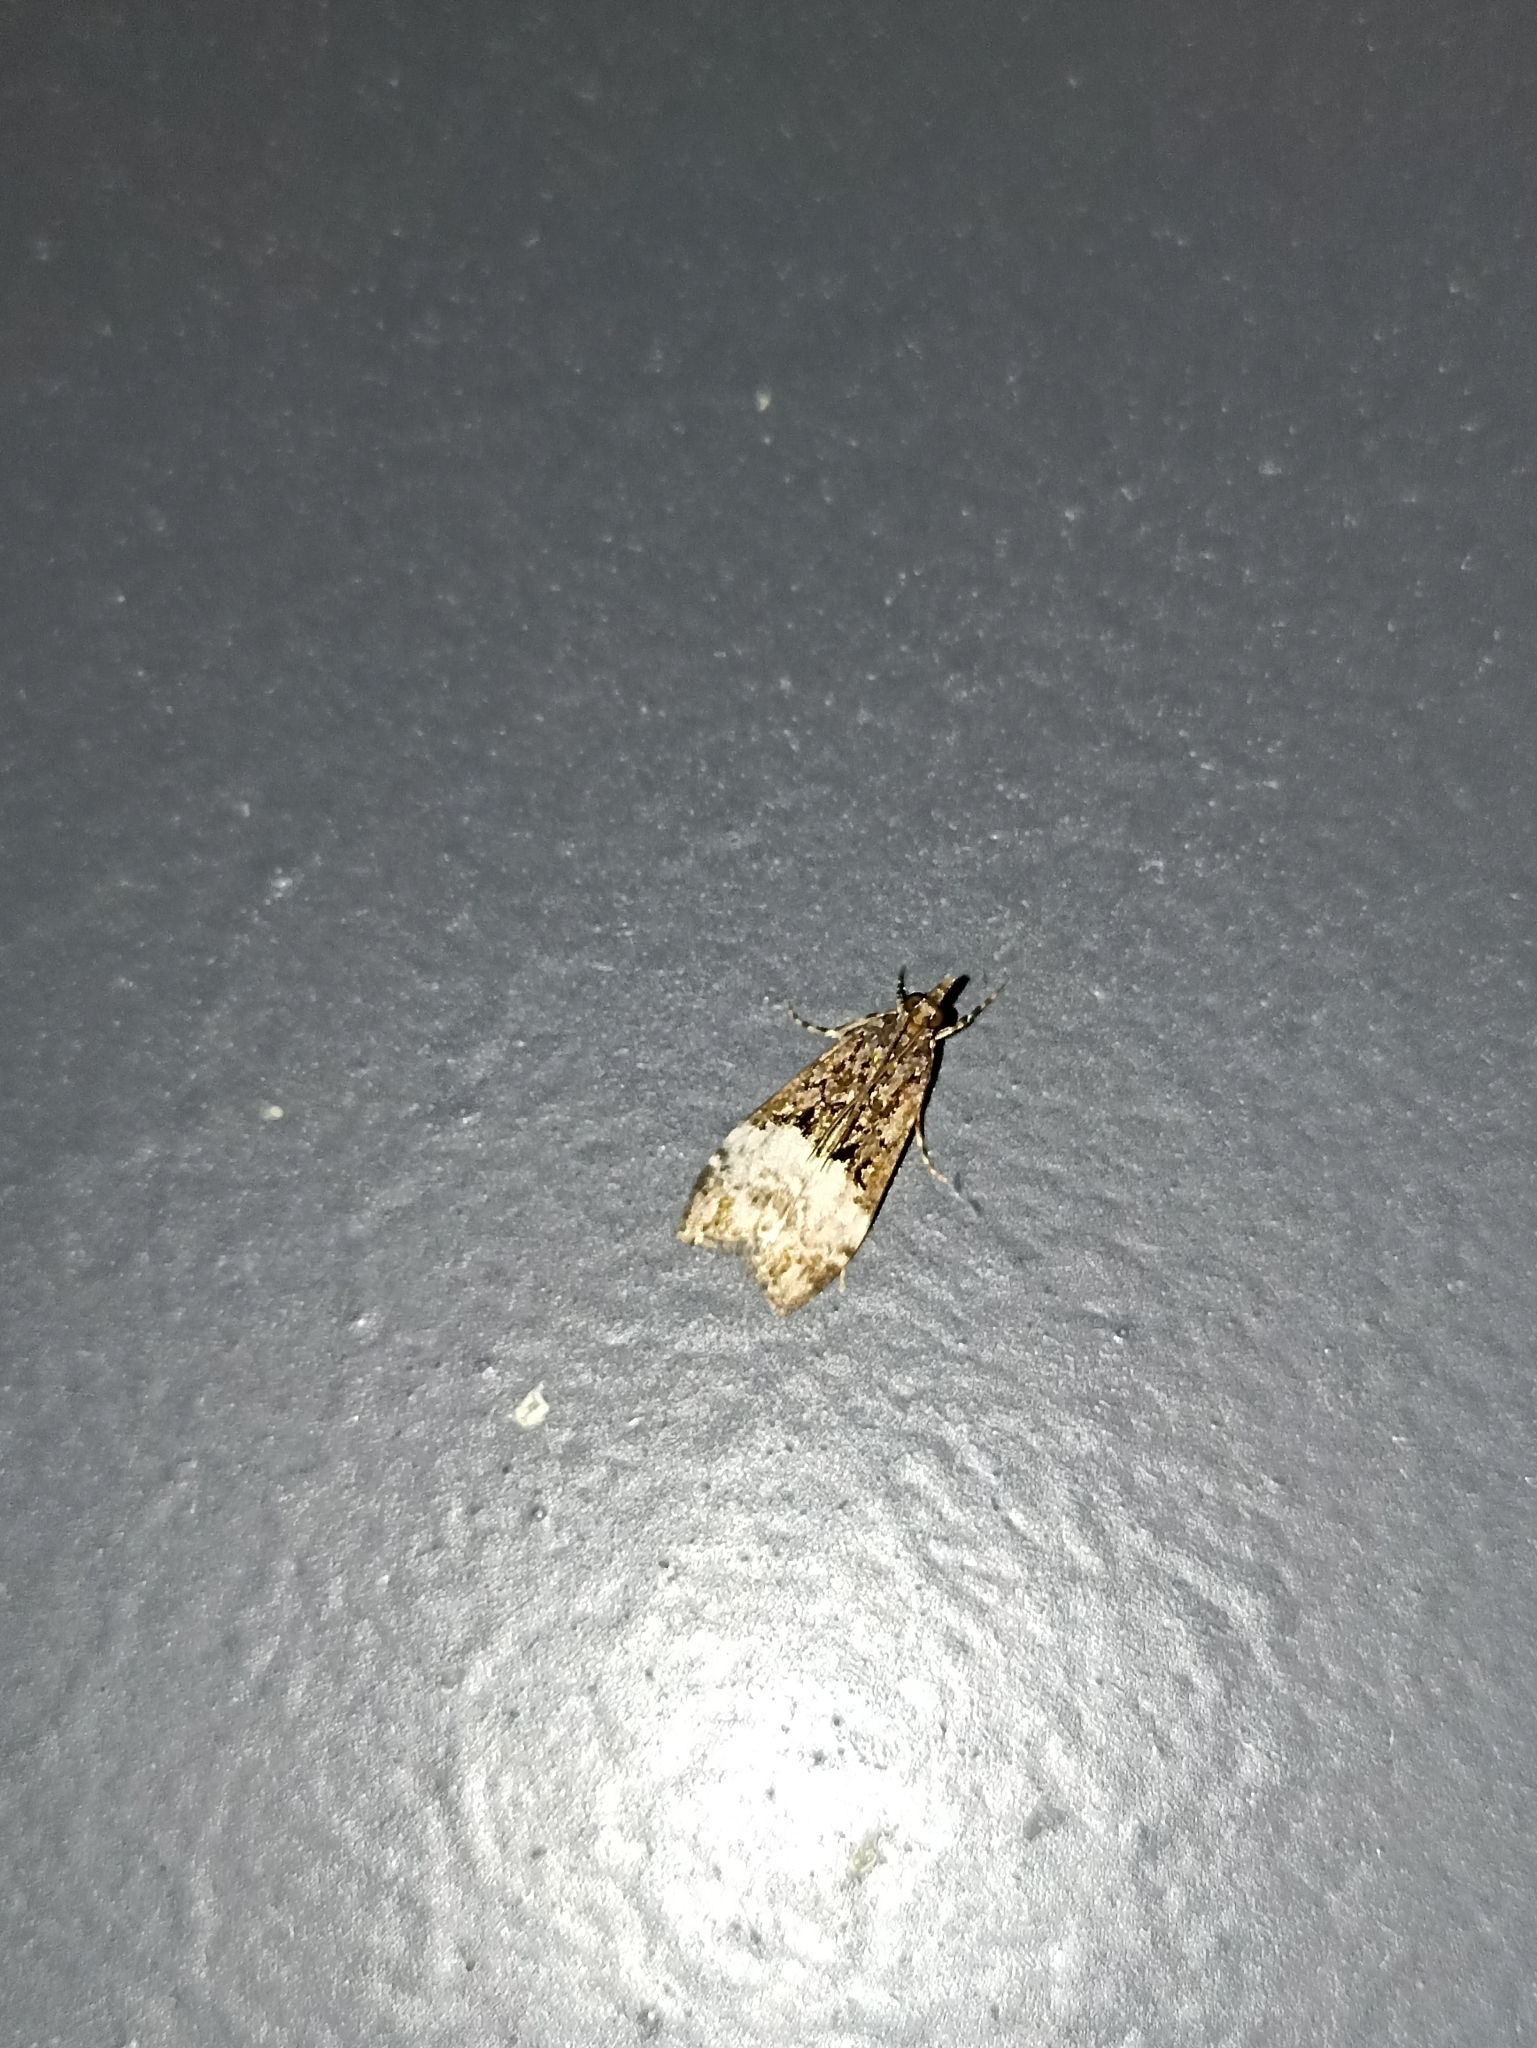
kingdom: Animalia
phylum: Arthropoda
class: Insecta
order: Lepidoptera
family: Crambidae
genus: Scoparia
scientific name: Scoparia minusculalis
